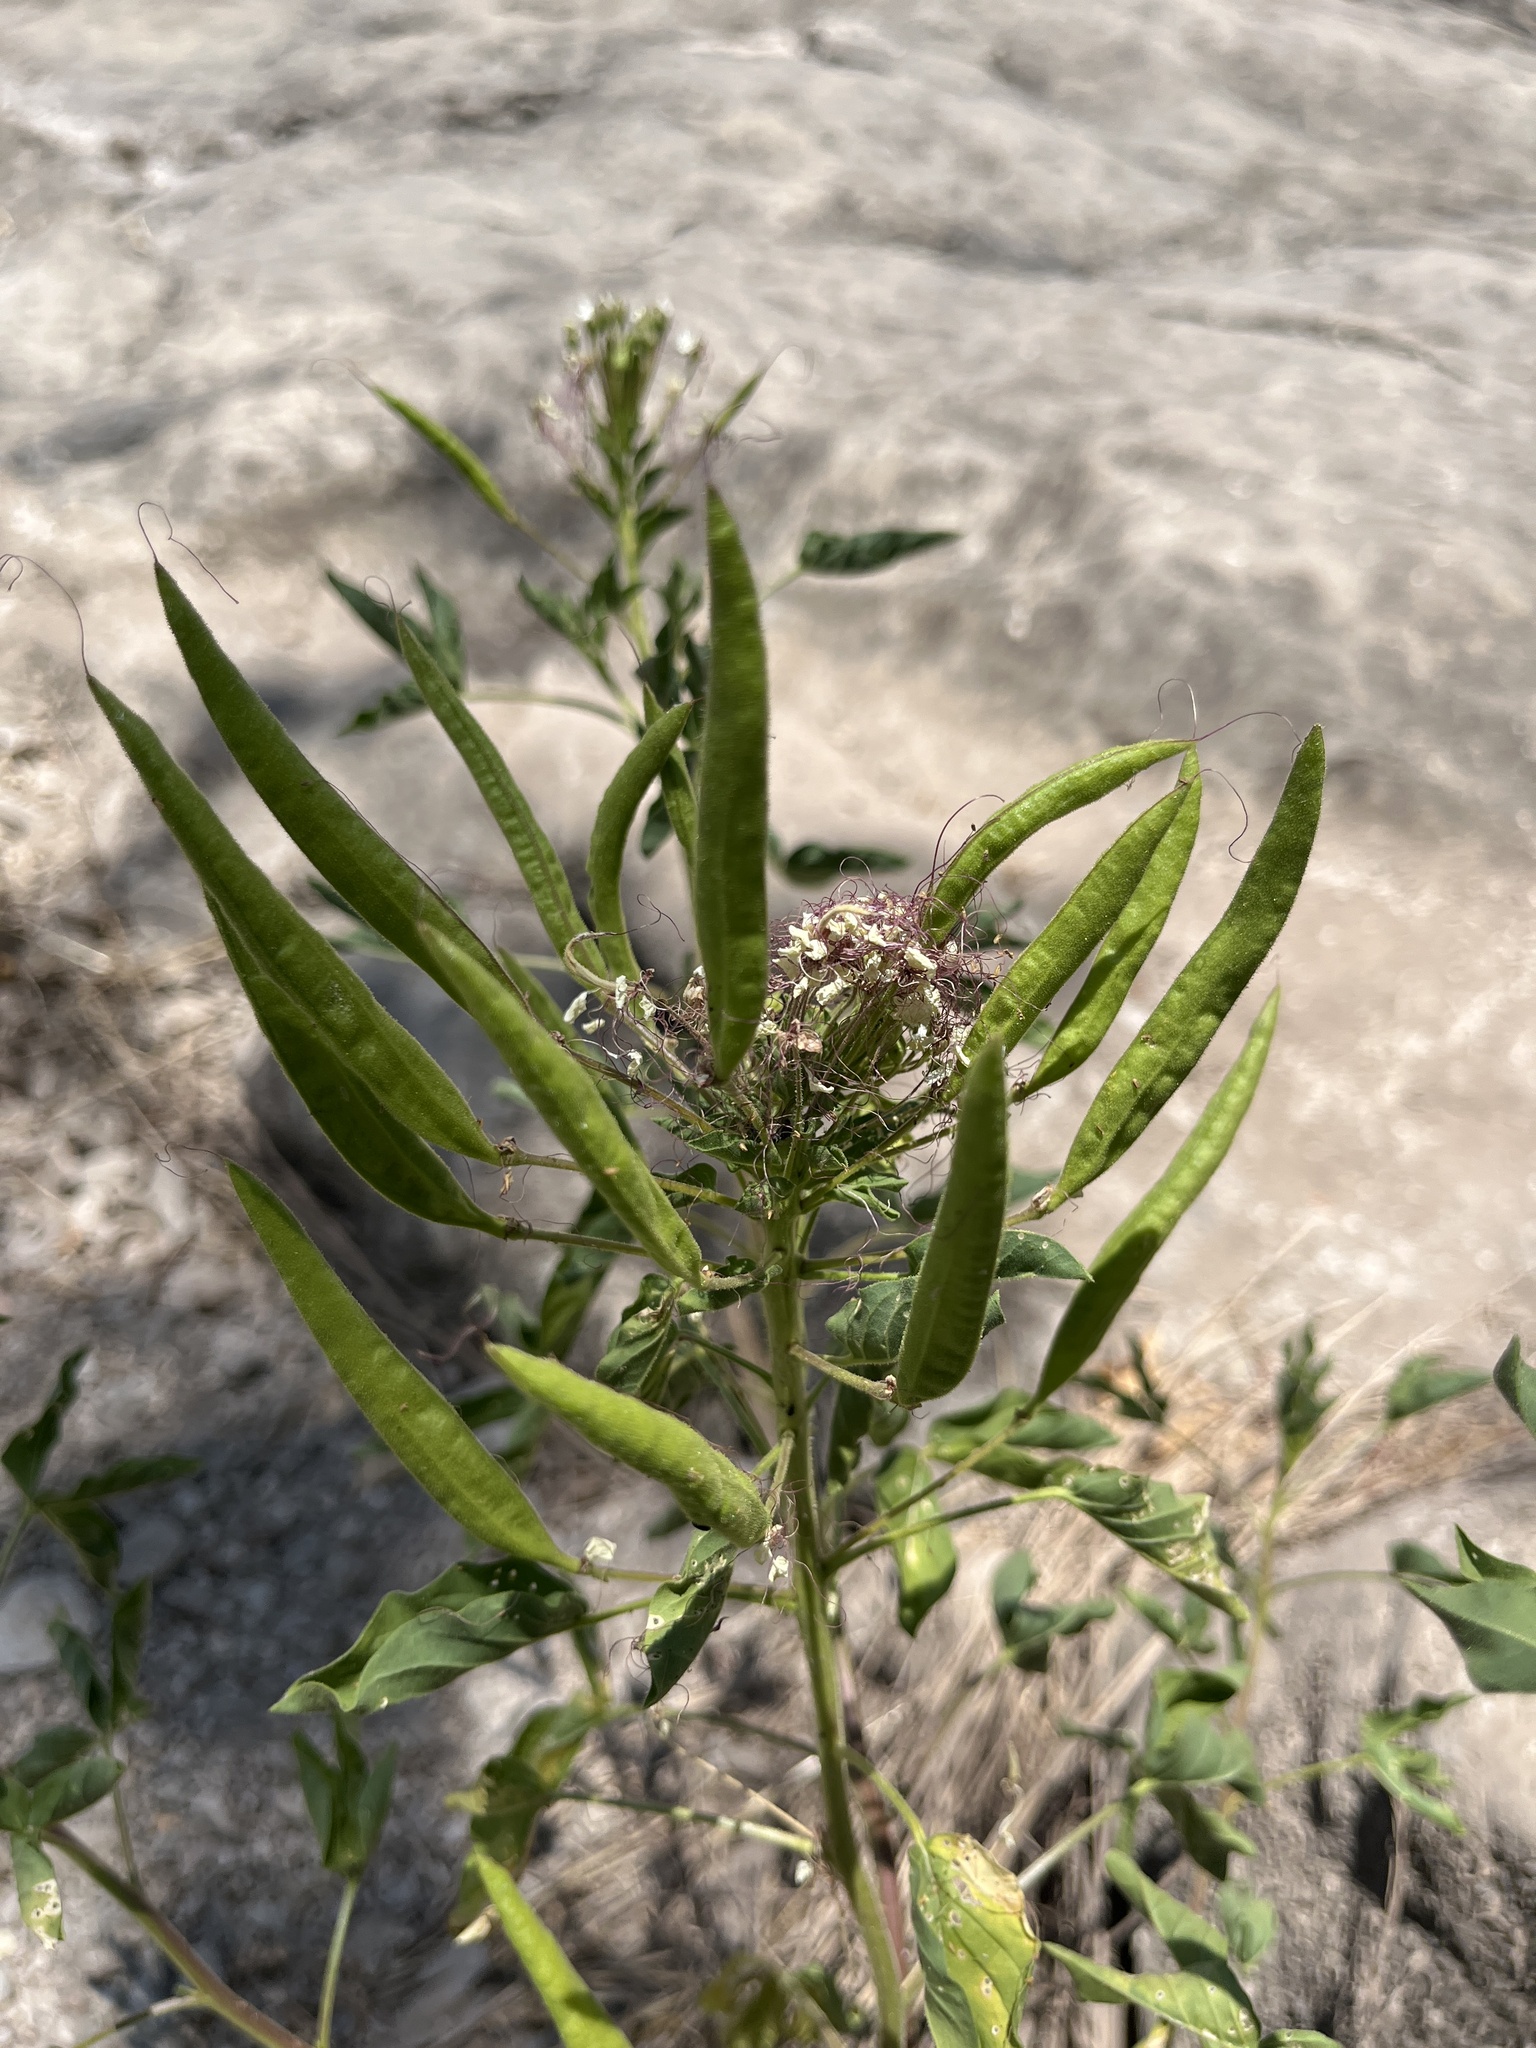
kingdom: Plantae
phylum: Tracheophyta
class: Magnoliopsida
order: Brassicales
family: Cleomaceae
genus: Polanisia
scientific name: Polanisia dodecandra
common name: Clammyweed
